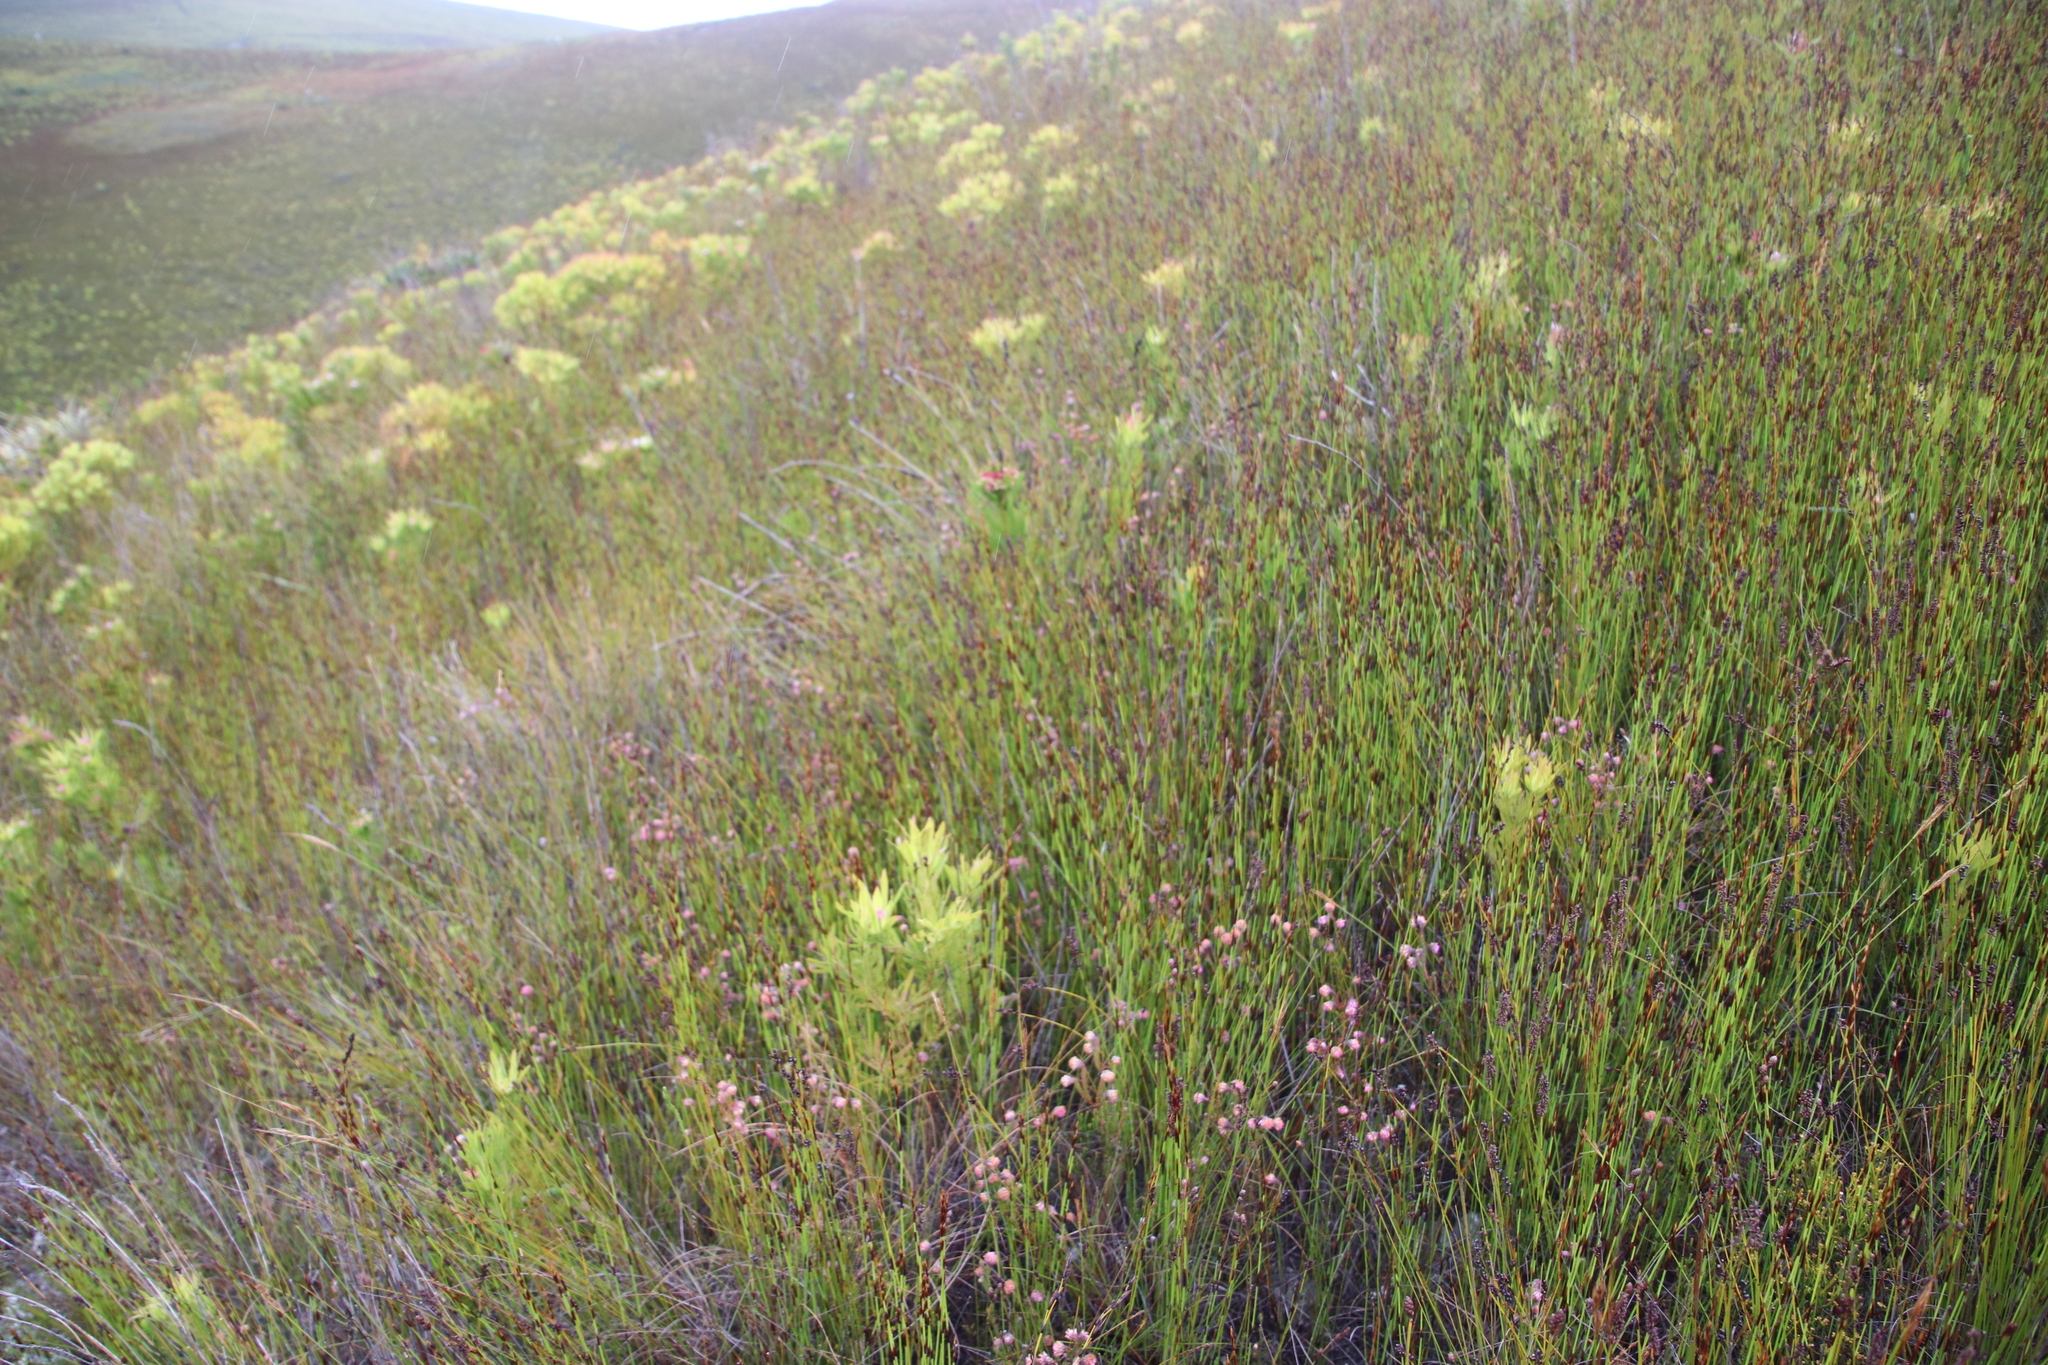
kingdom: Plantae
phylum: Tracheophyta
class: Magnoliopsida
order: Ericales
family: Ericaceae
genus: Erica
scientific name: Erica barbigeroides
